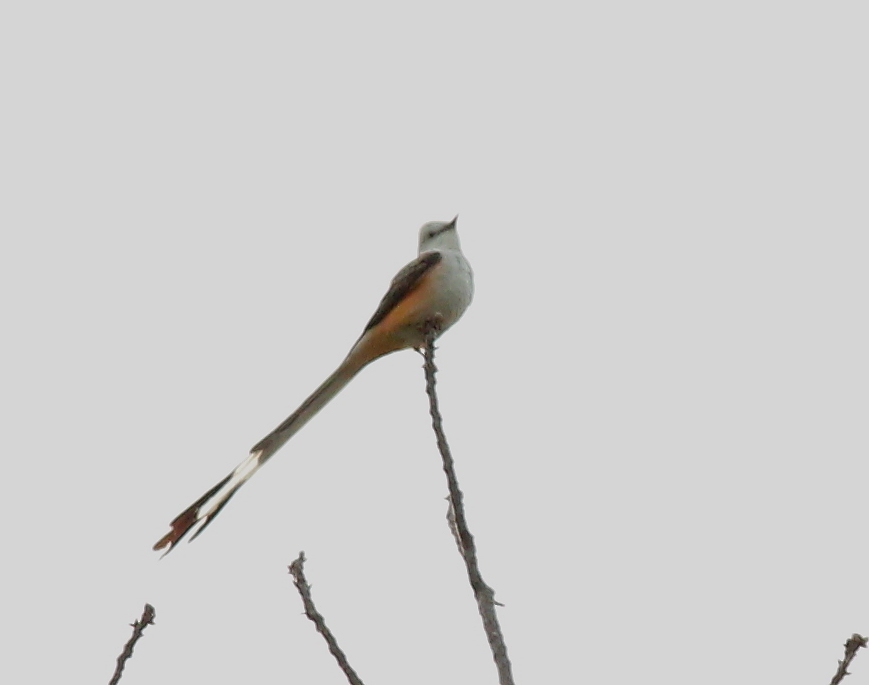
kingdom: Animalia
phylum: Chordata
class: Aves
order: Passeriformes
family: Tyrannidae
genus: Tyrannus
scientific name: Tyrannus forficatus
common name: Scissor-tailed flycatcher
